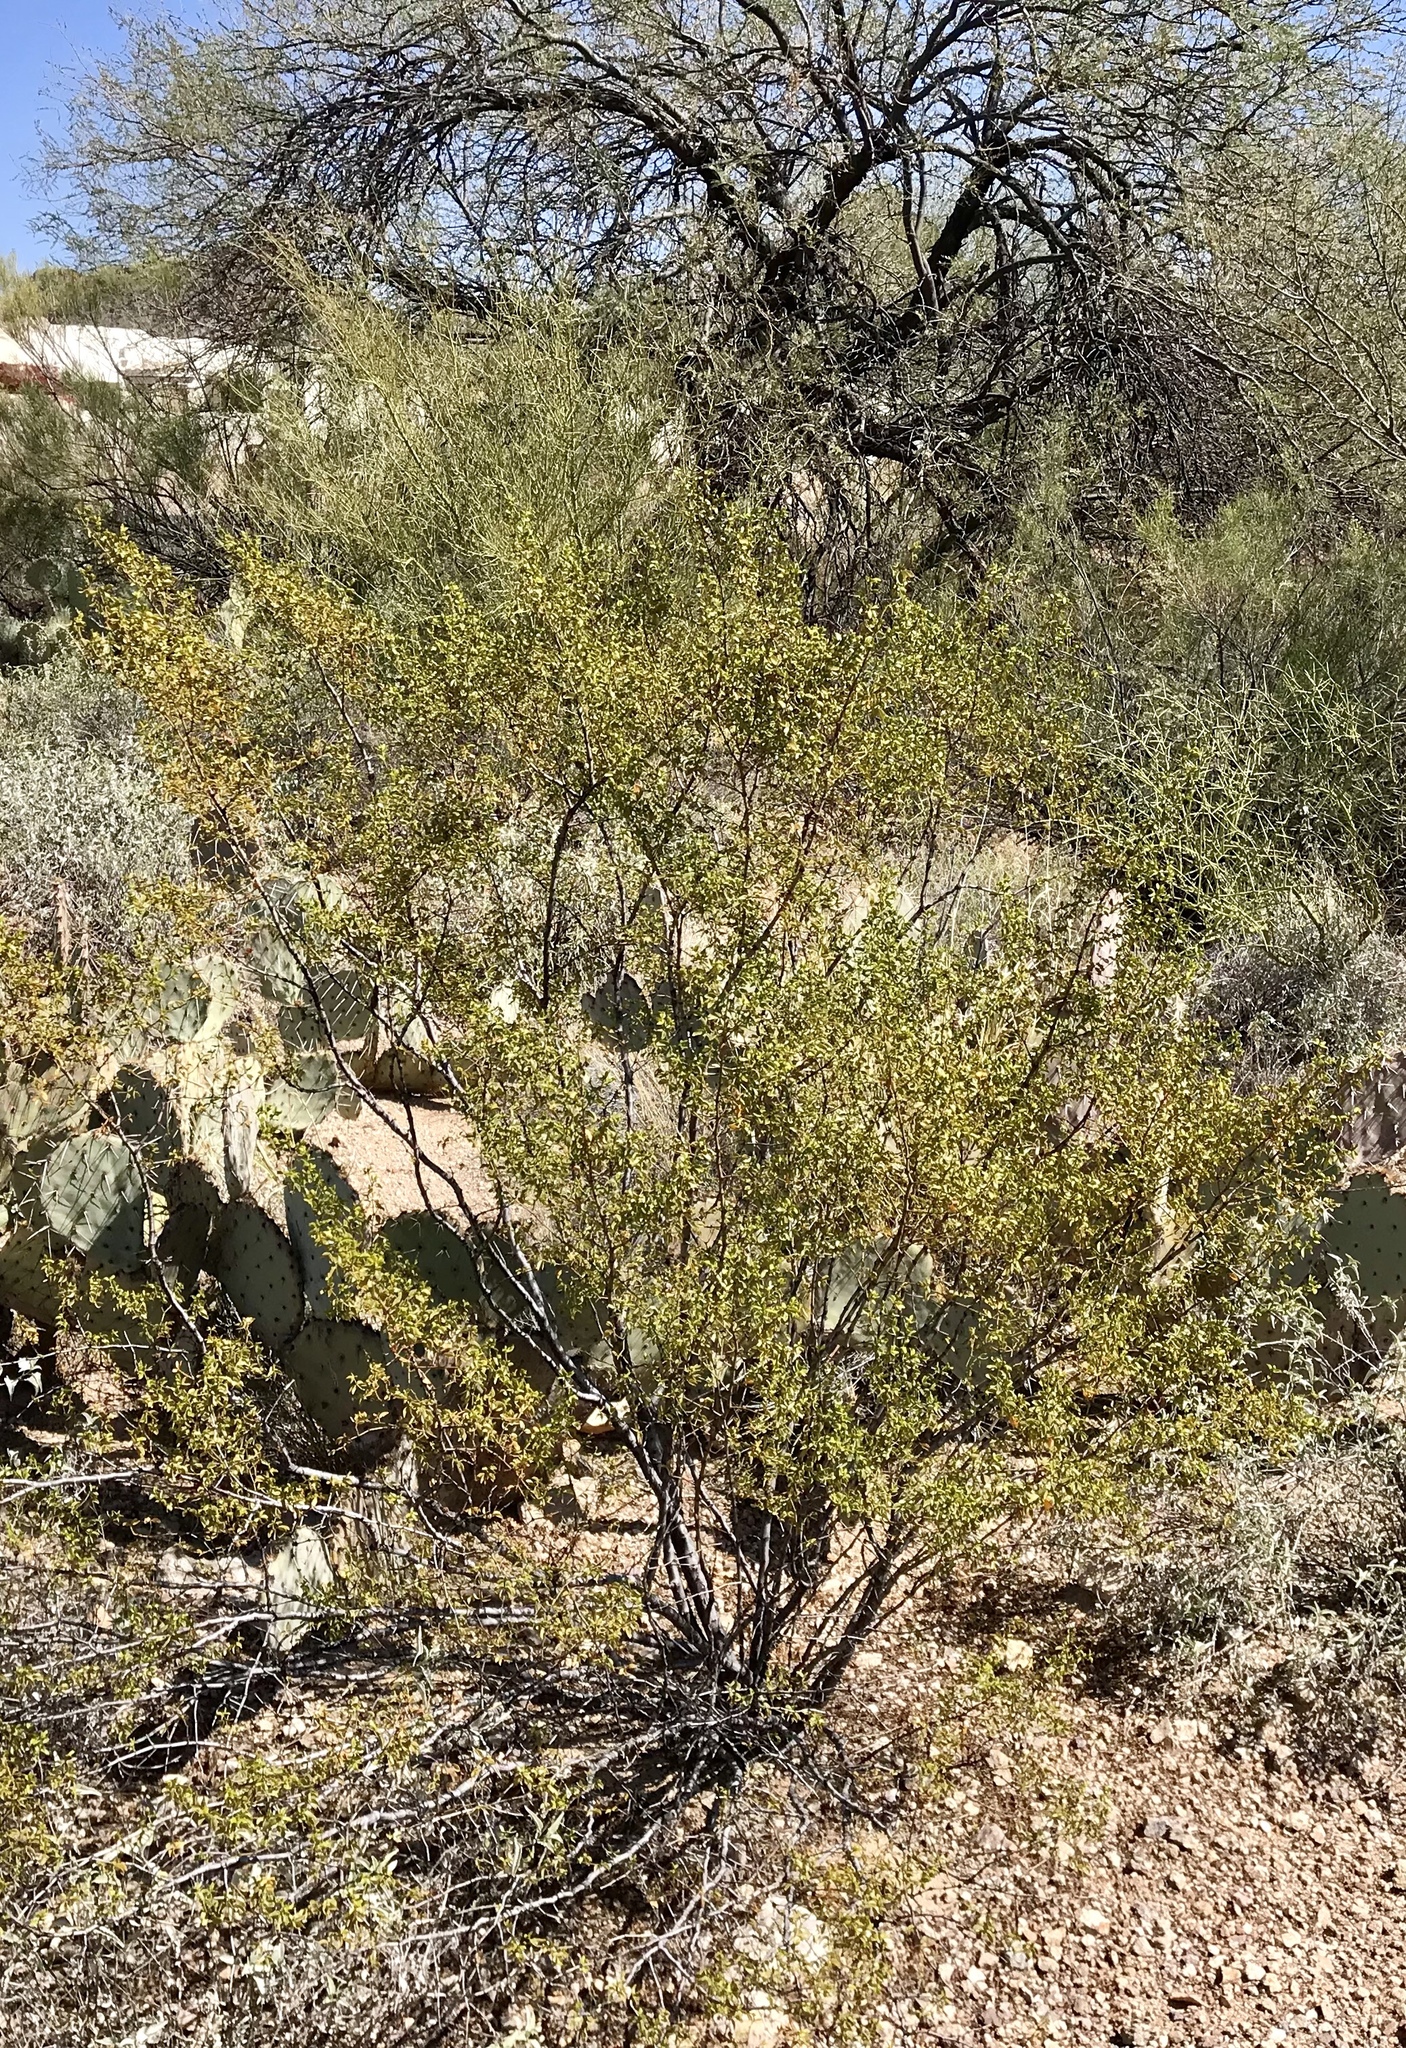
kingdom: Plantae
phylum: Tracheophyta
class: Magnoliopsida
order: Zygophyllales
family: Zygophyllaceae
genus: Larrea
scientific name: Larrea tridentata
